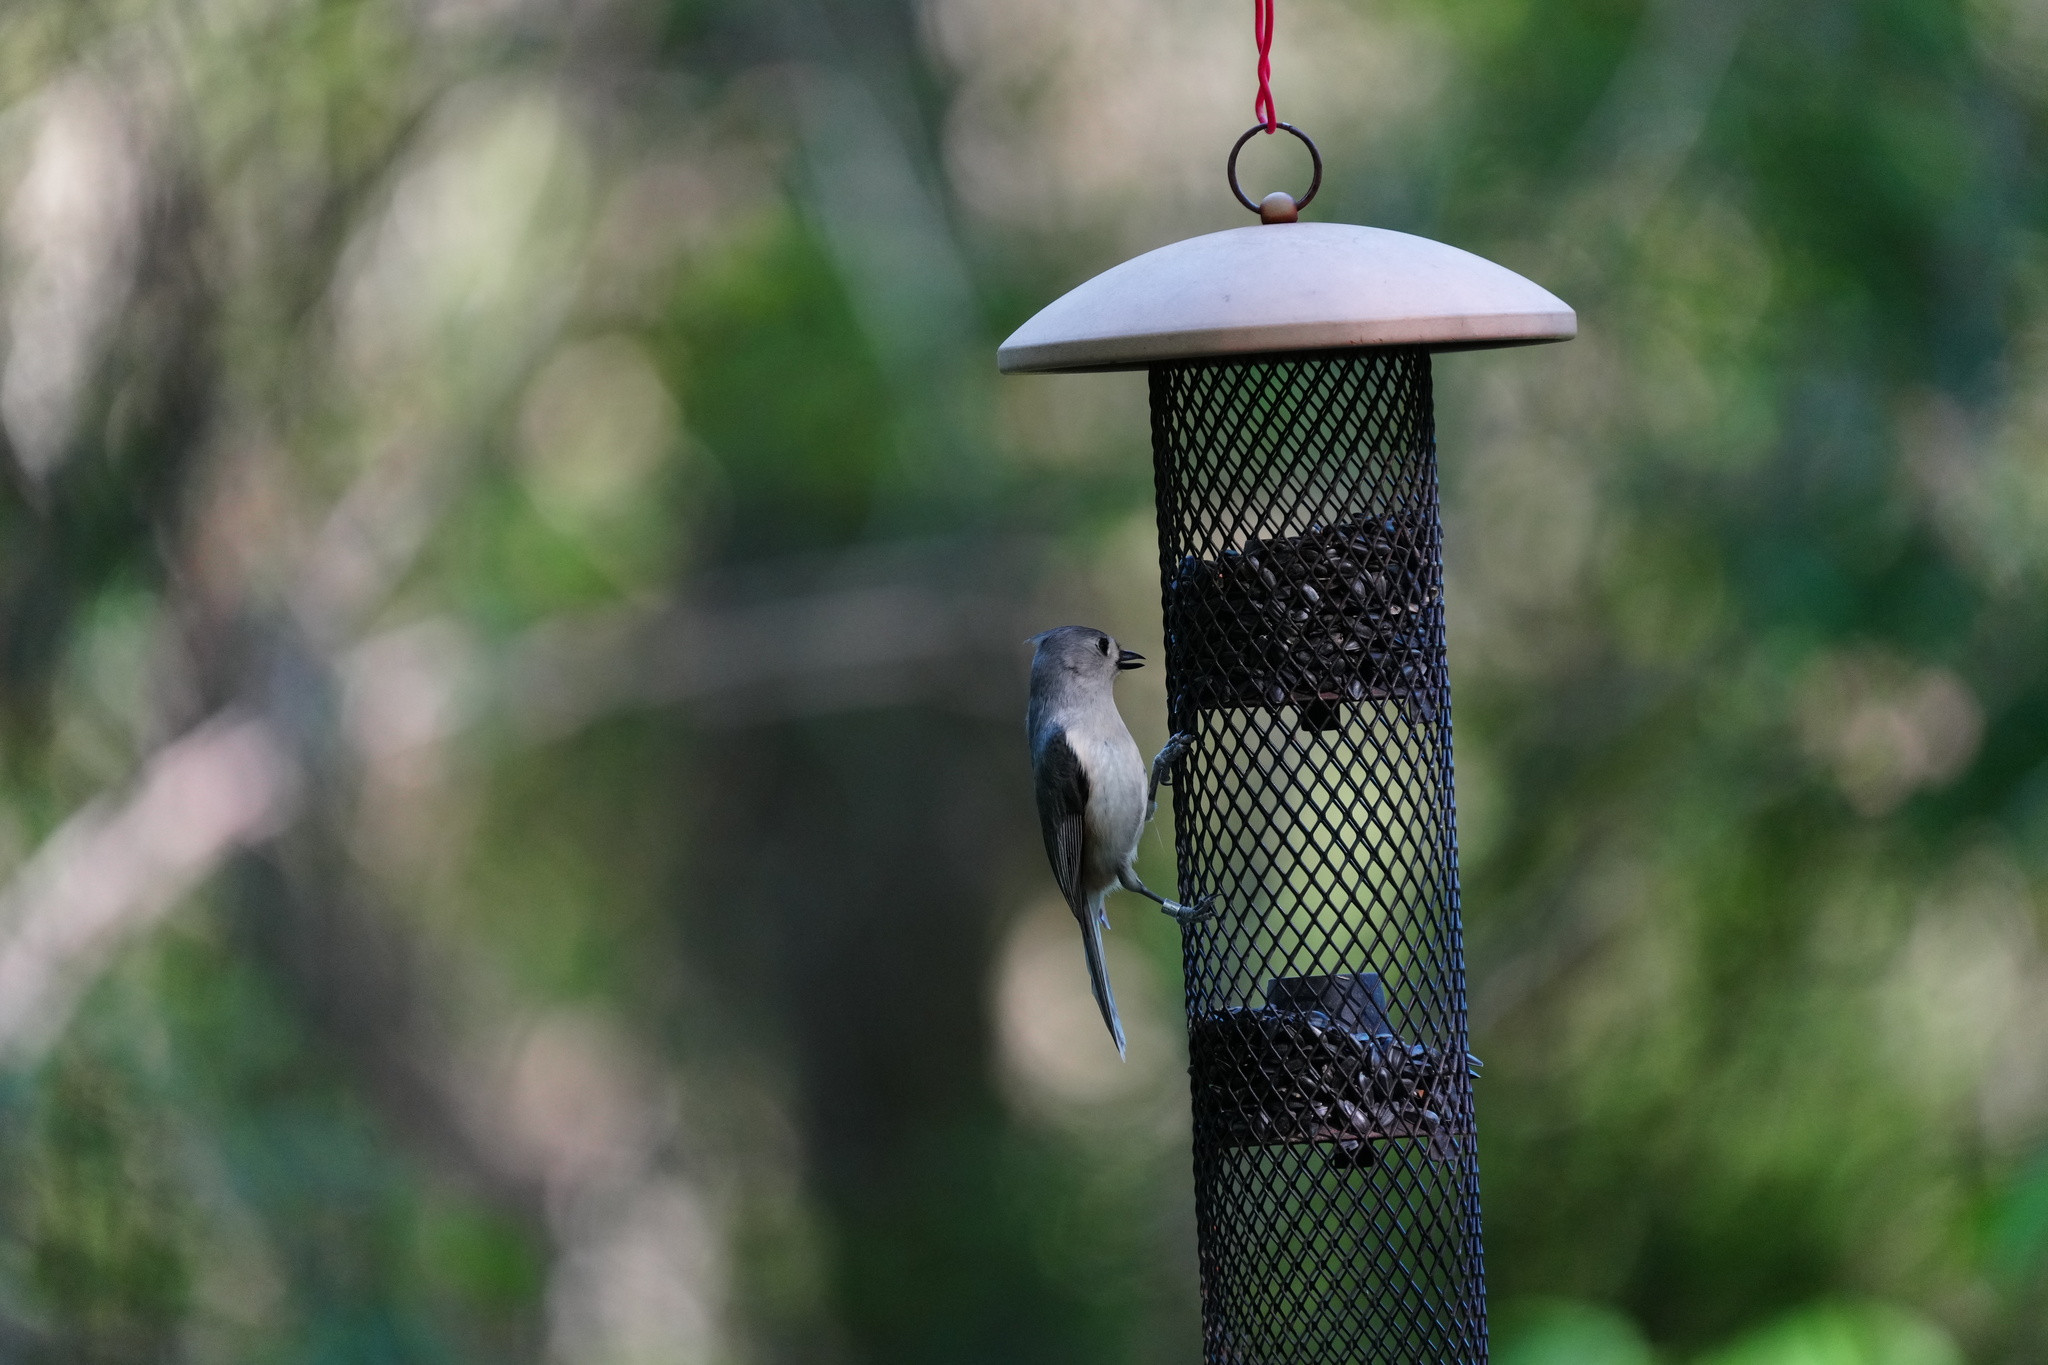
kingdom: Animalia
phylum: Chordata
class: Aves
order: Passeriformes
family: Paridae
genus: Baeolophus
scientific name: Baeolophus bicolor
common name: Tufted titmouse
